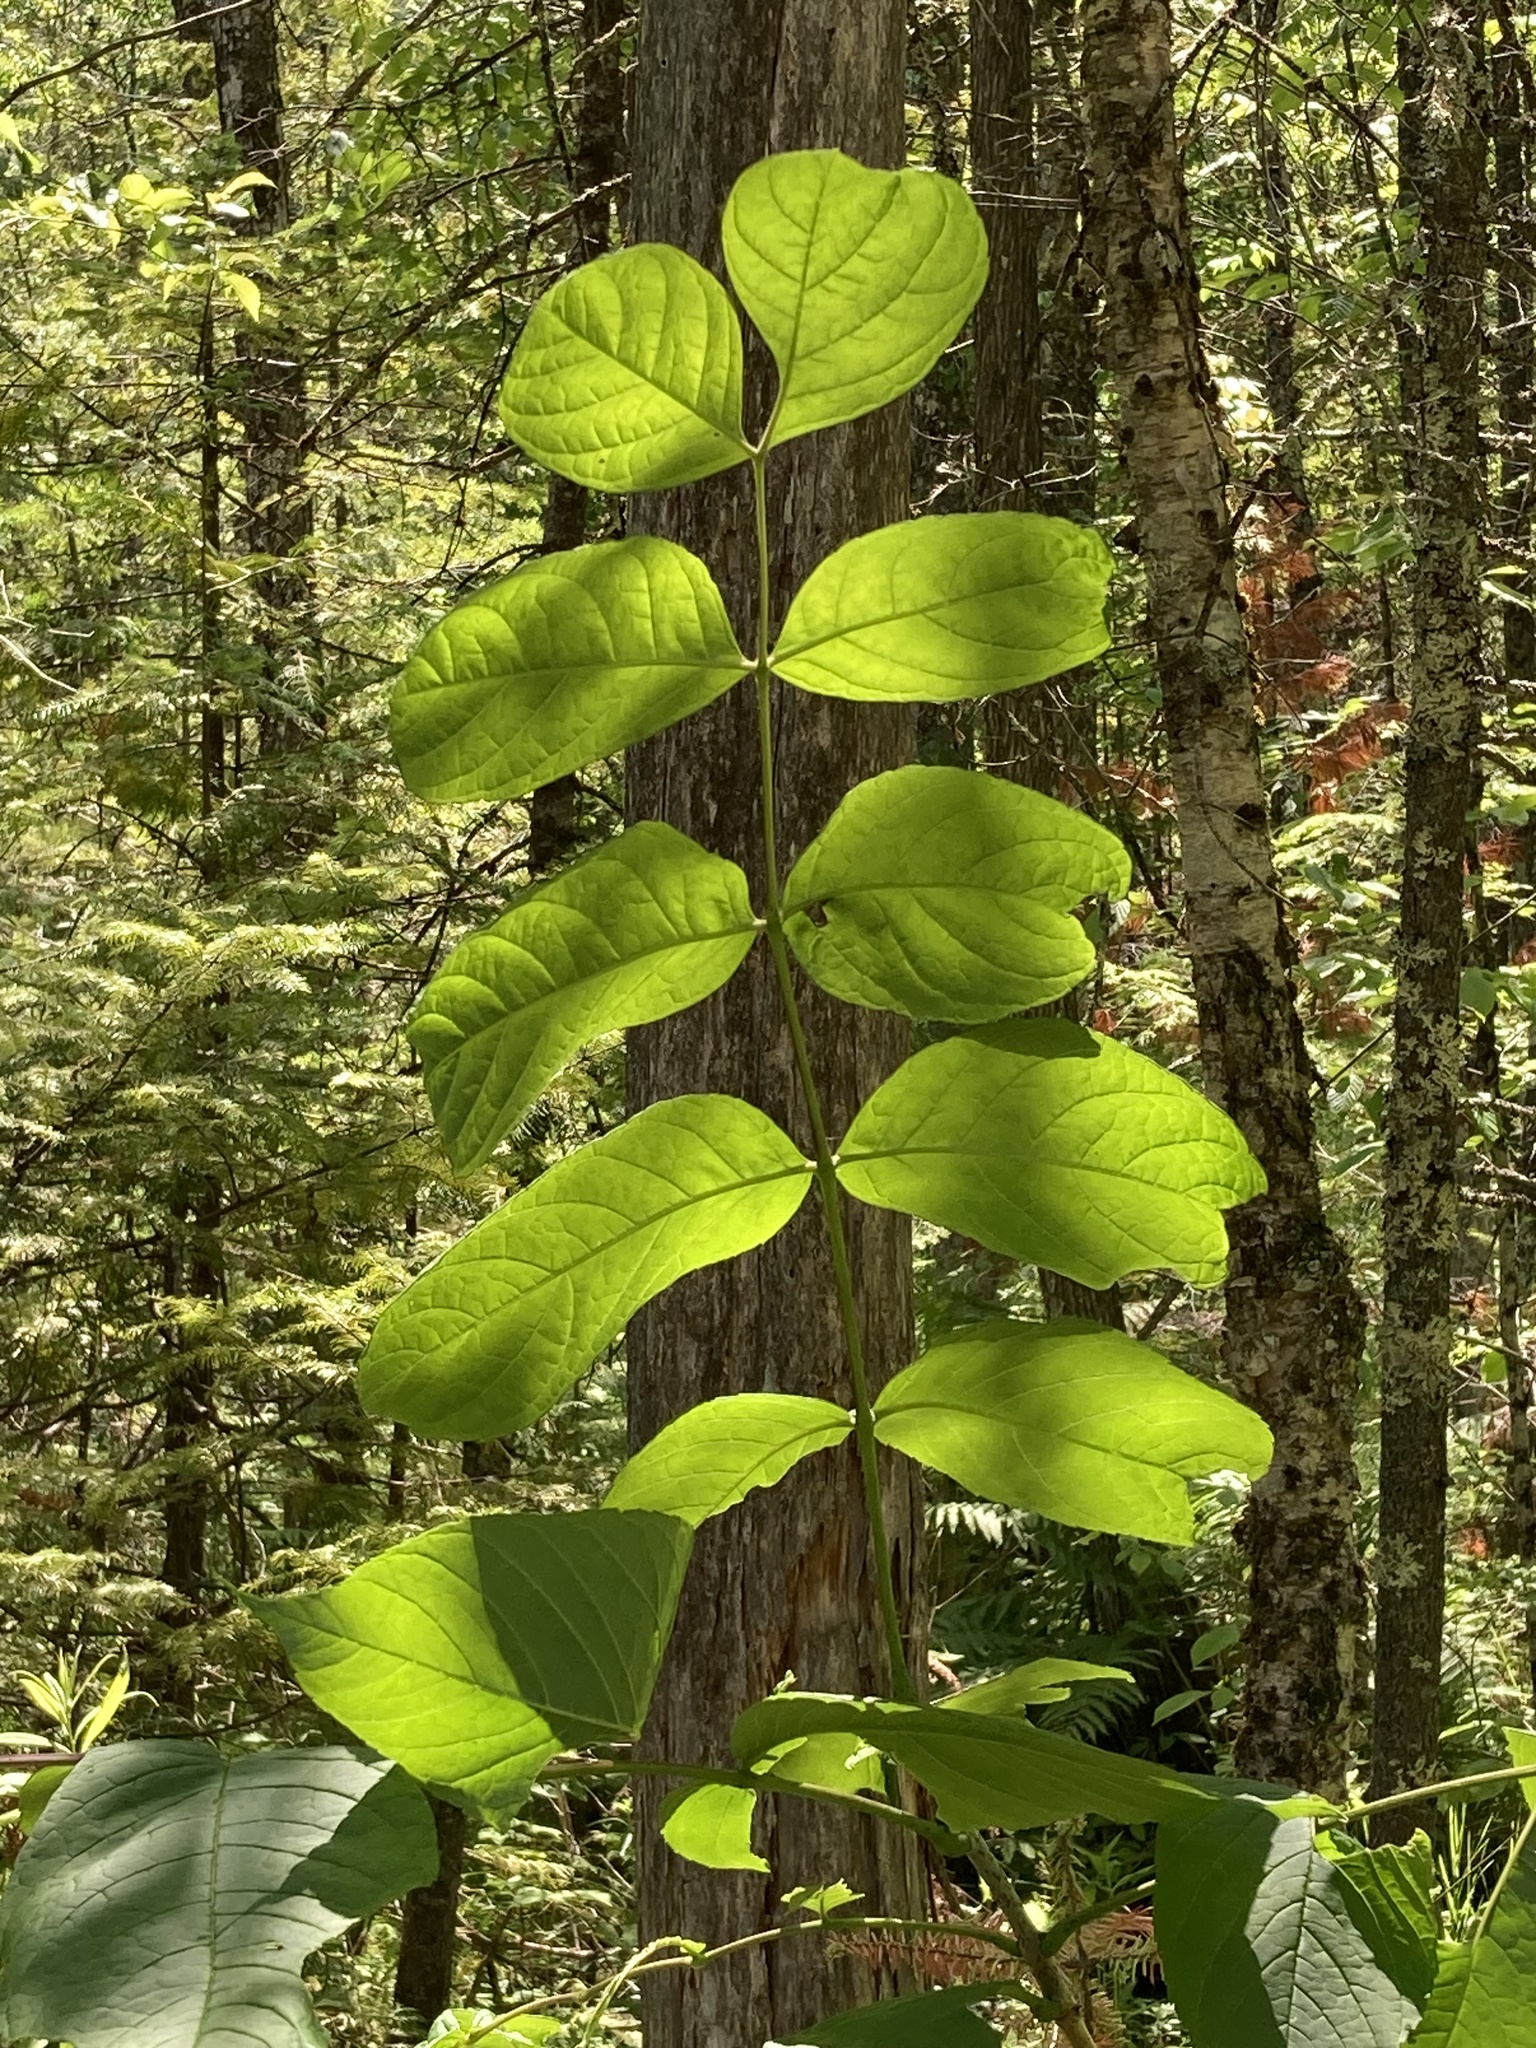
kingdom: Plantae
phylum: Tracheophyta
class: Magnoliopsida
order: Lamiales
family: Oleaceae
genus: Fraxinus
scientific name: Fraxinus nigra
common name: Black ash
